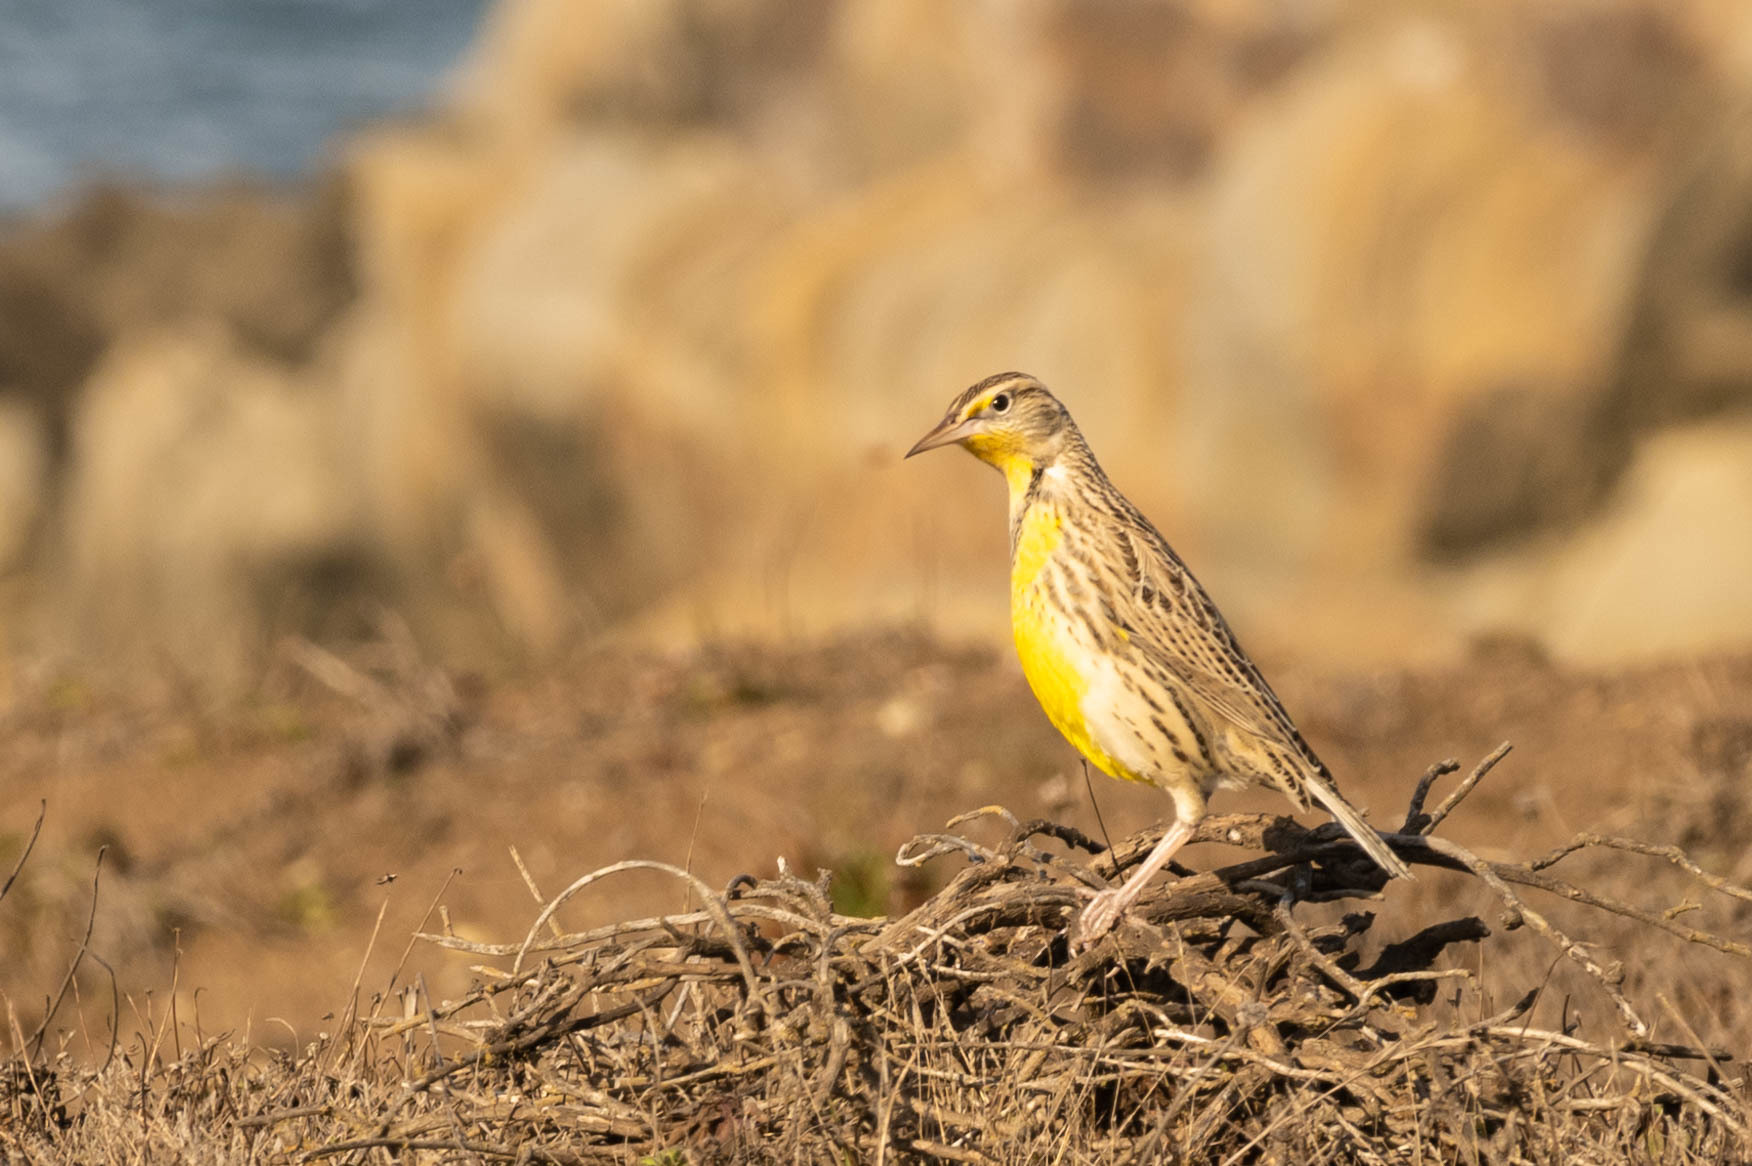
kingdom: Animalia
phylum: Chordata
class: Aves
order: Passeriformes
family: Icteridae
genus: Sturnella
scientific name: Sturnella neglecta
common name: Western meadowlark
